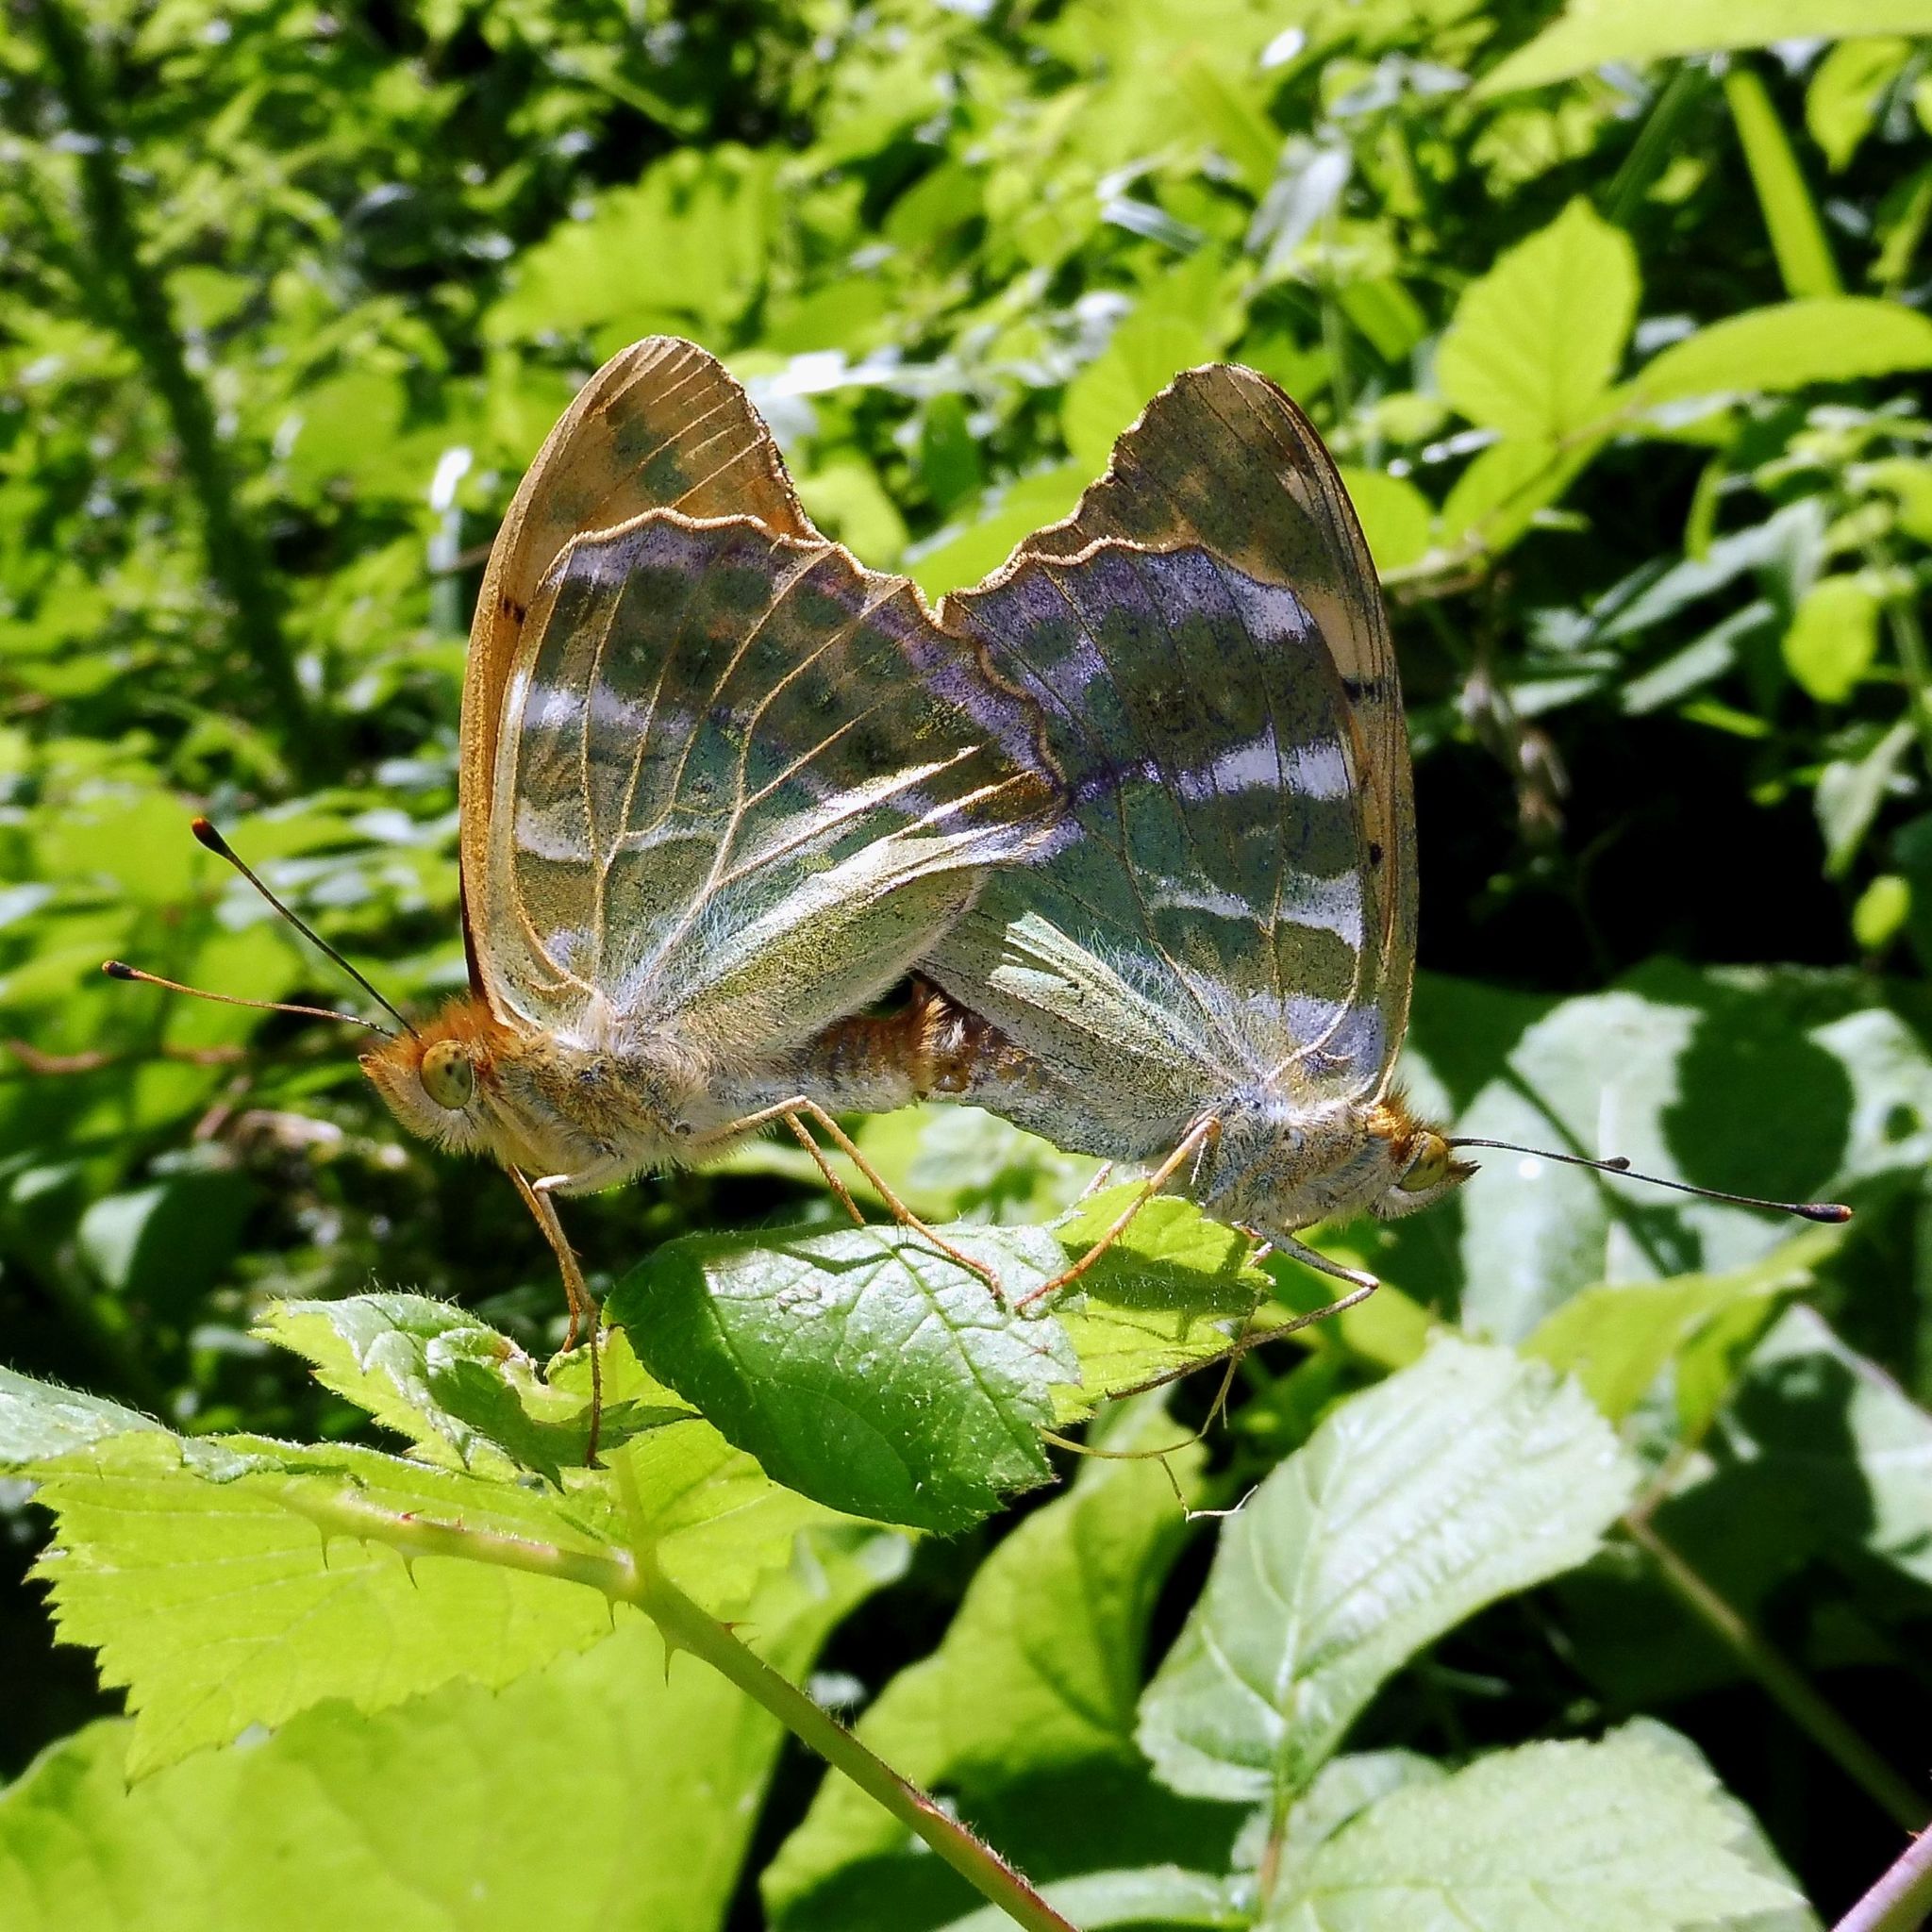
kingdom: Animalia
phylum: Arthropoda
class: Insecta
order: Lepidoptera
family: Nymphalidae
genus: Argynnis
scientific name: Argynnis paphia
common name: Silver-washed fritillary
